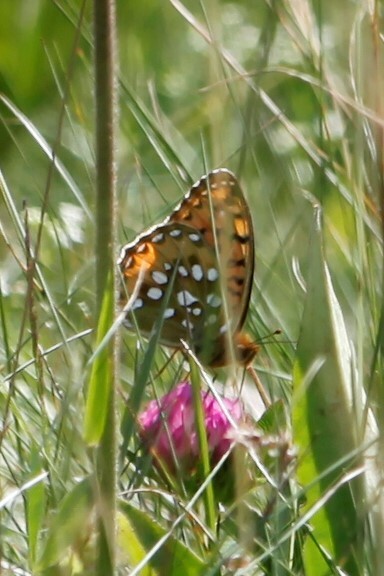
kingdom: Animalia
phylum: Arthropoda
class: Insecta
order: Lepidoptera
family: Nymphalidae
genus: Speyeria
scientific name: Speyeria aglaja
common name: Dark green fritillary
